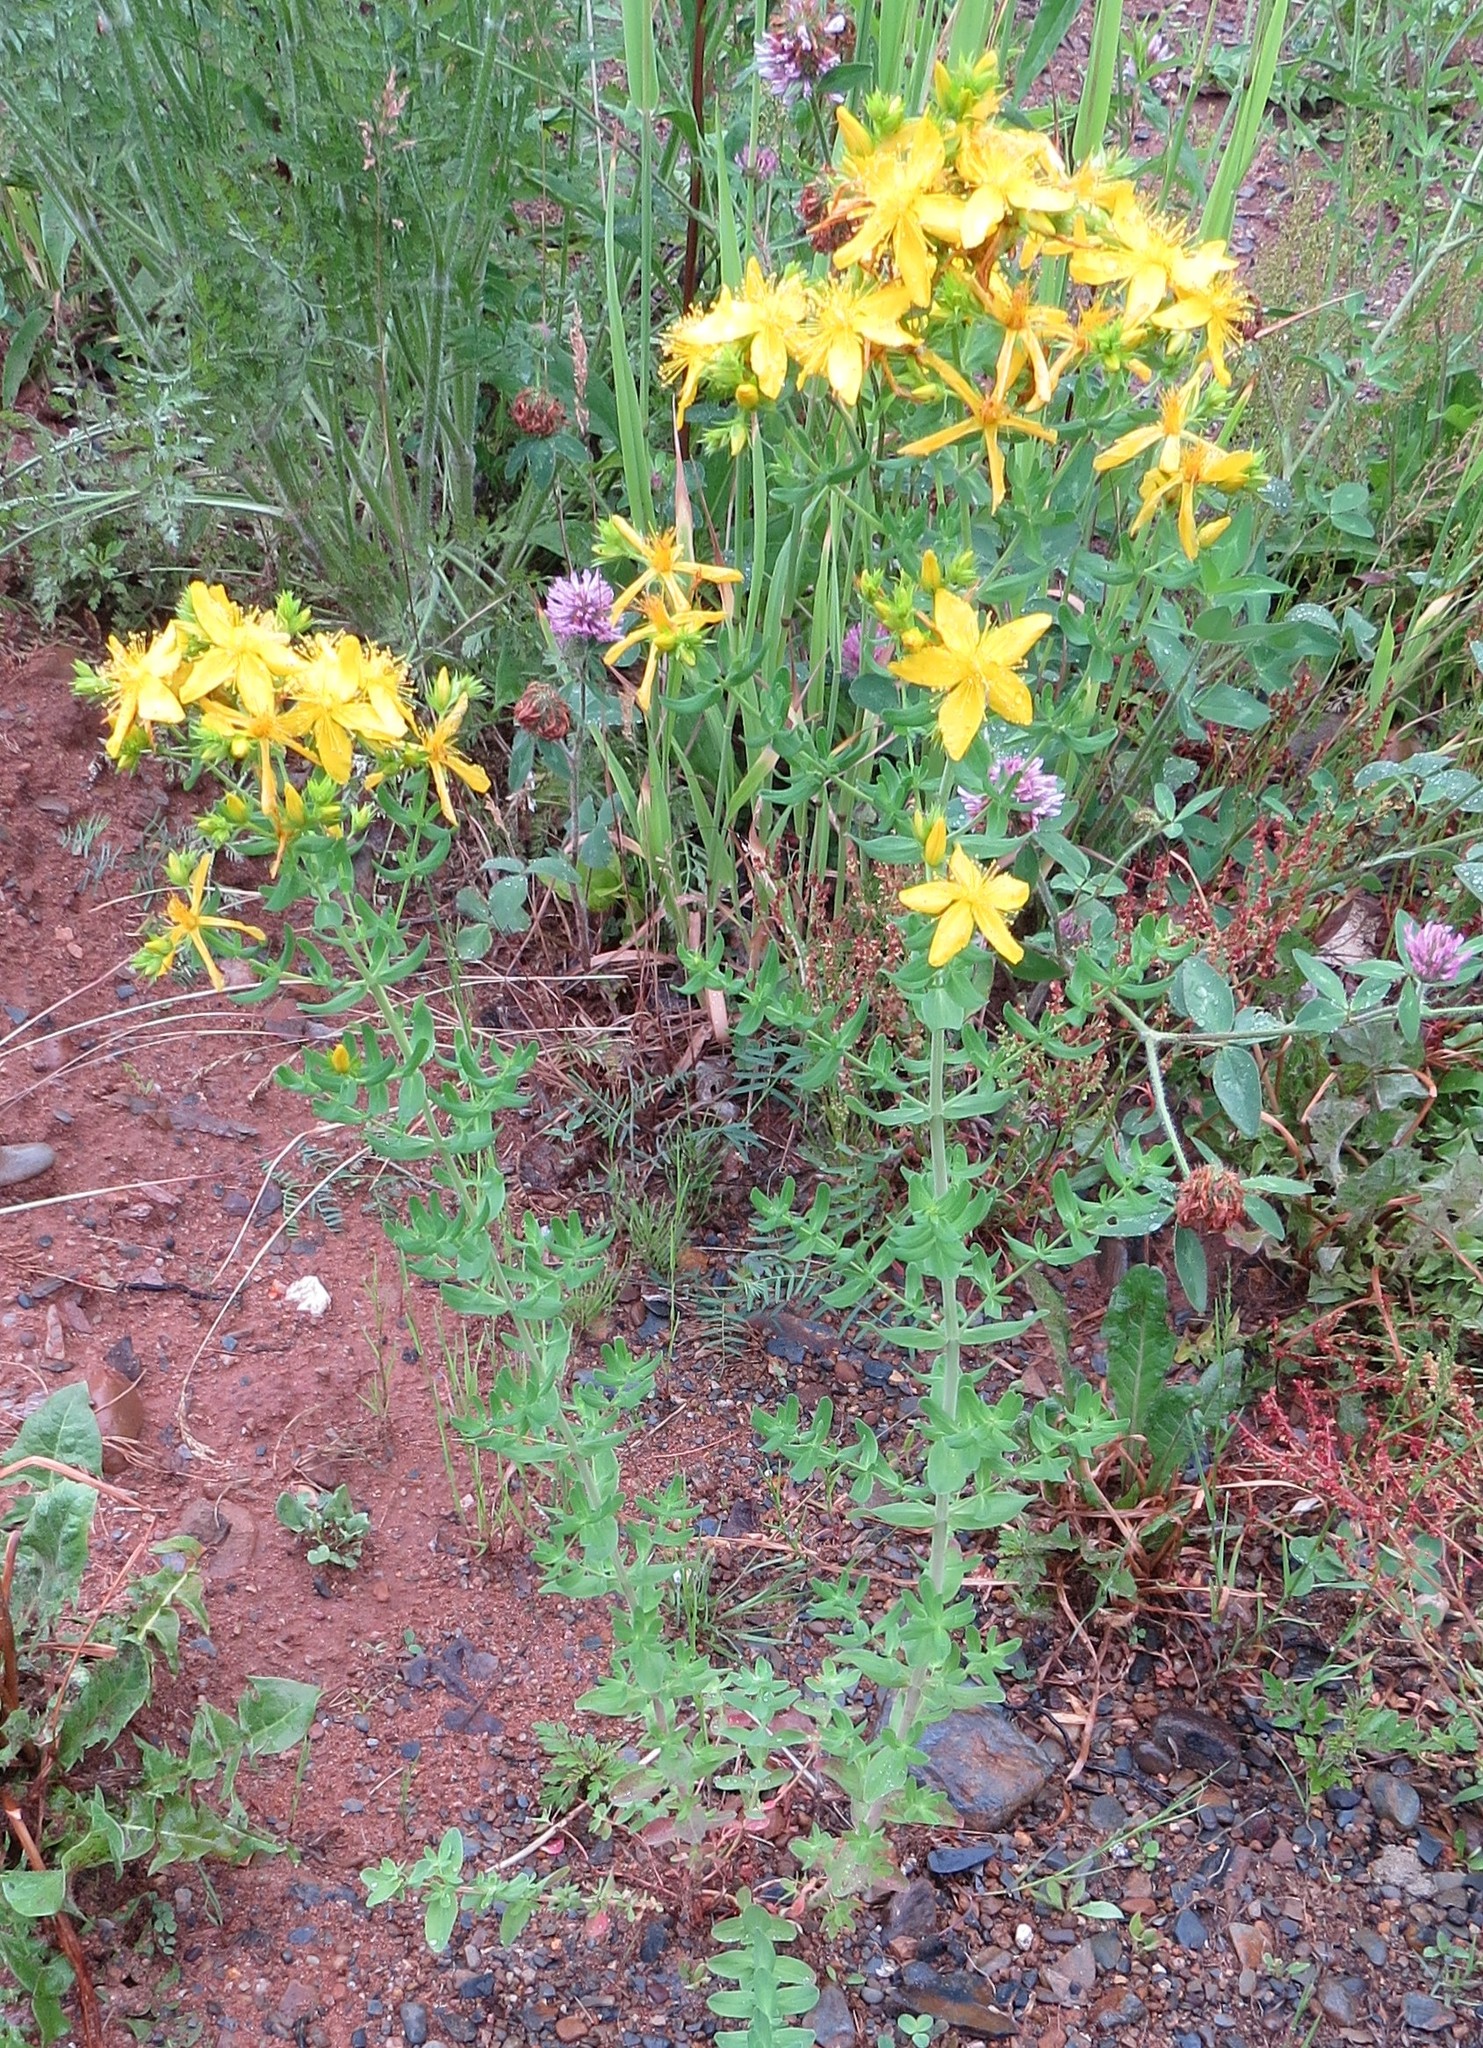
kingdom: Plantae
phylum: Tracheophyta
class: Magnoliopsida
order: Malpighiales
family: Hypericaceae
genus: Hypericum
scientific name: Hypericum perforatum
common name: Common st. johnswort
